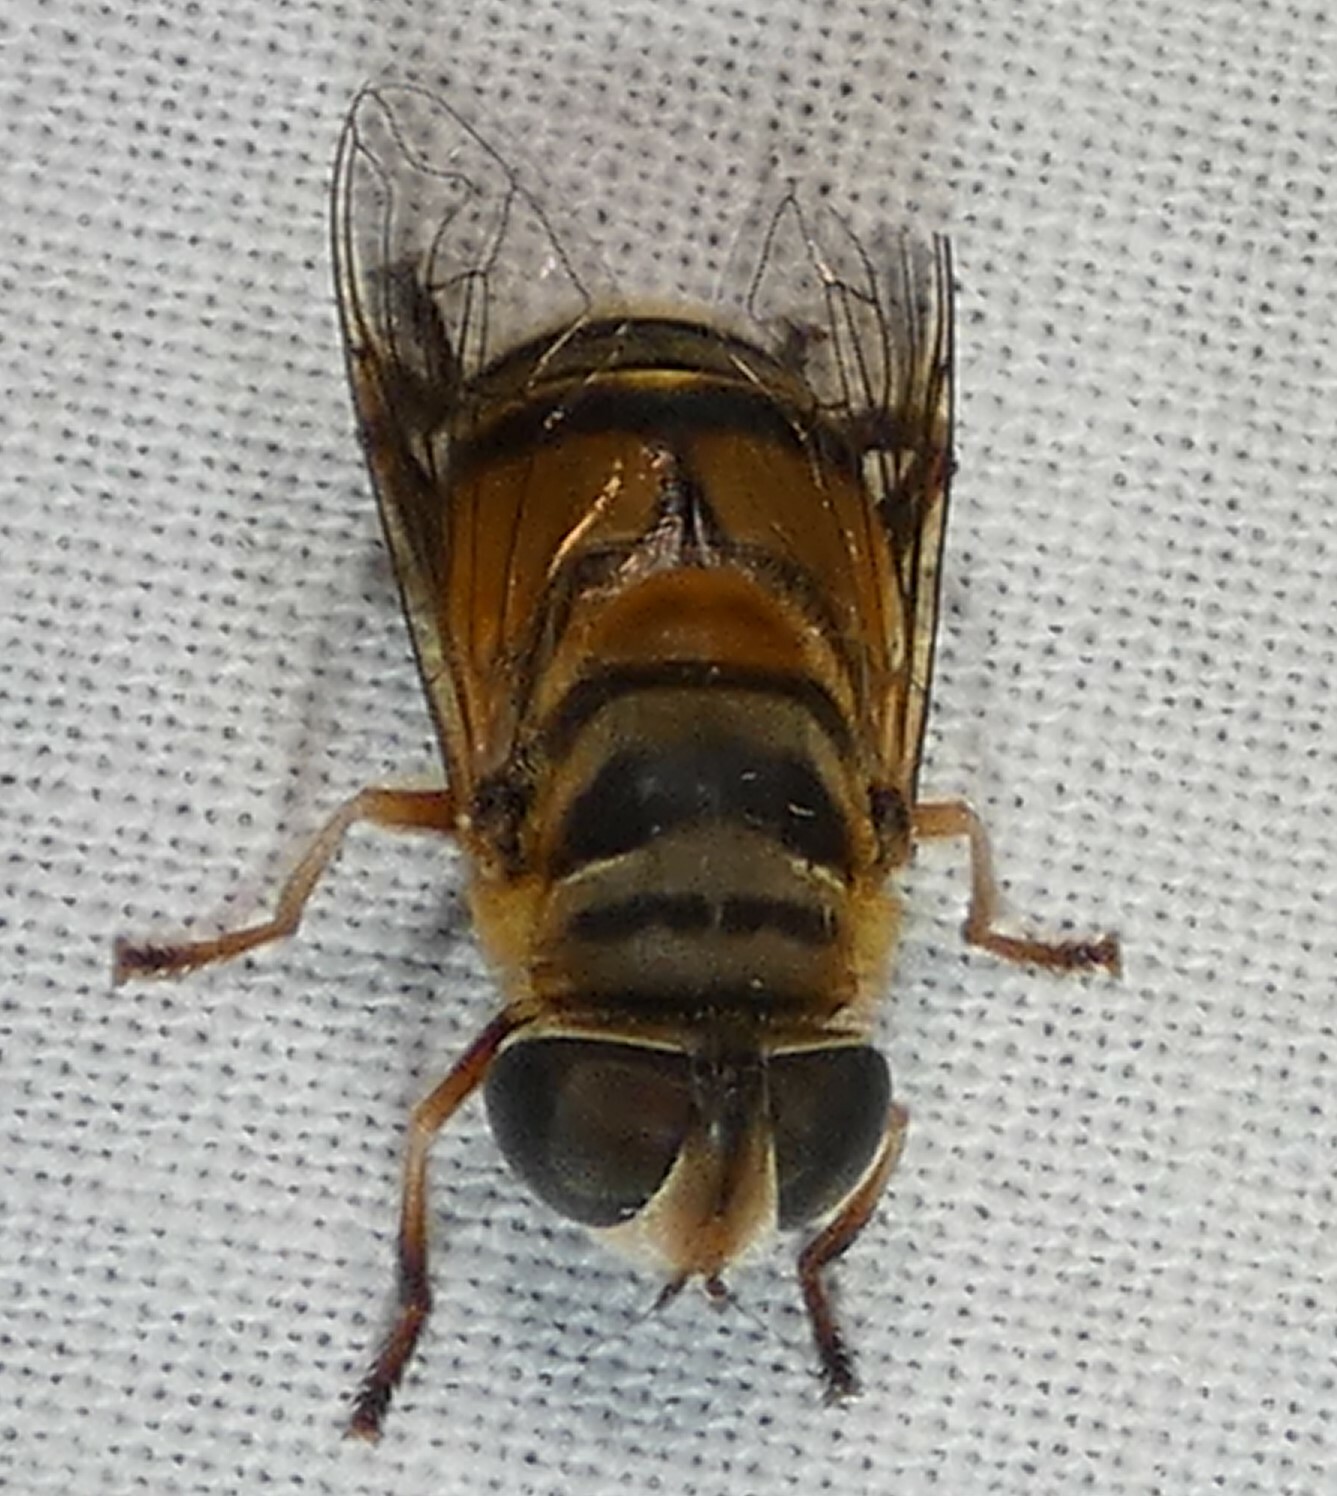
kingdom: Animalia
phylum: Arthropoda
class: Insecta
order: Diptera
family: Syrphidae
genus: Palpada
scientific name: Palpada vinetorum
